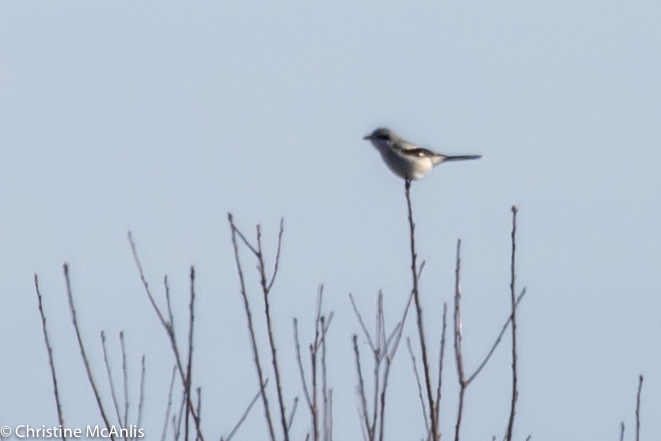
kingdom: Animalia
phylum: Chordata
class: Aves
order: Passeriformes
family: Laniidae
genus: Lanius
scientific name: Lanius borealis
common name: Northern shrike
